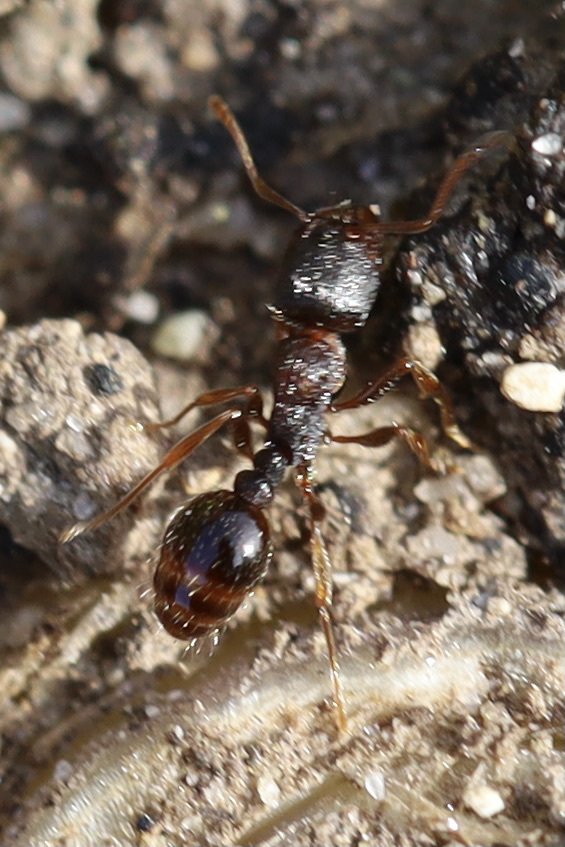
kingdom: Animalia
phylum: Arthropoda
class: Insecta
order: Hymenoptera
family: Formicidae
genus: Tetramorium
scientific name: Tetramorium immigrans
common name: Pavement ant
